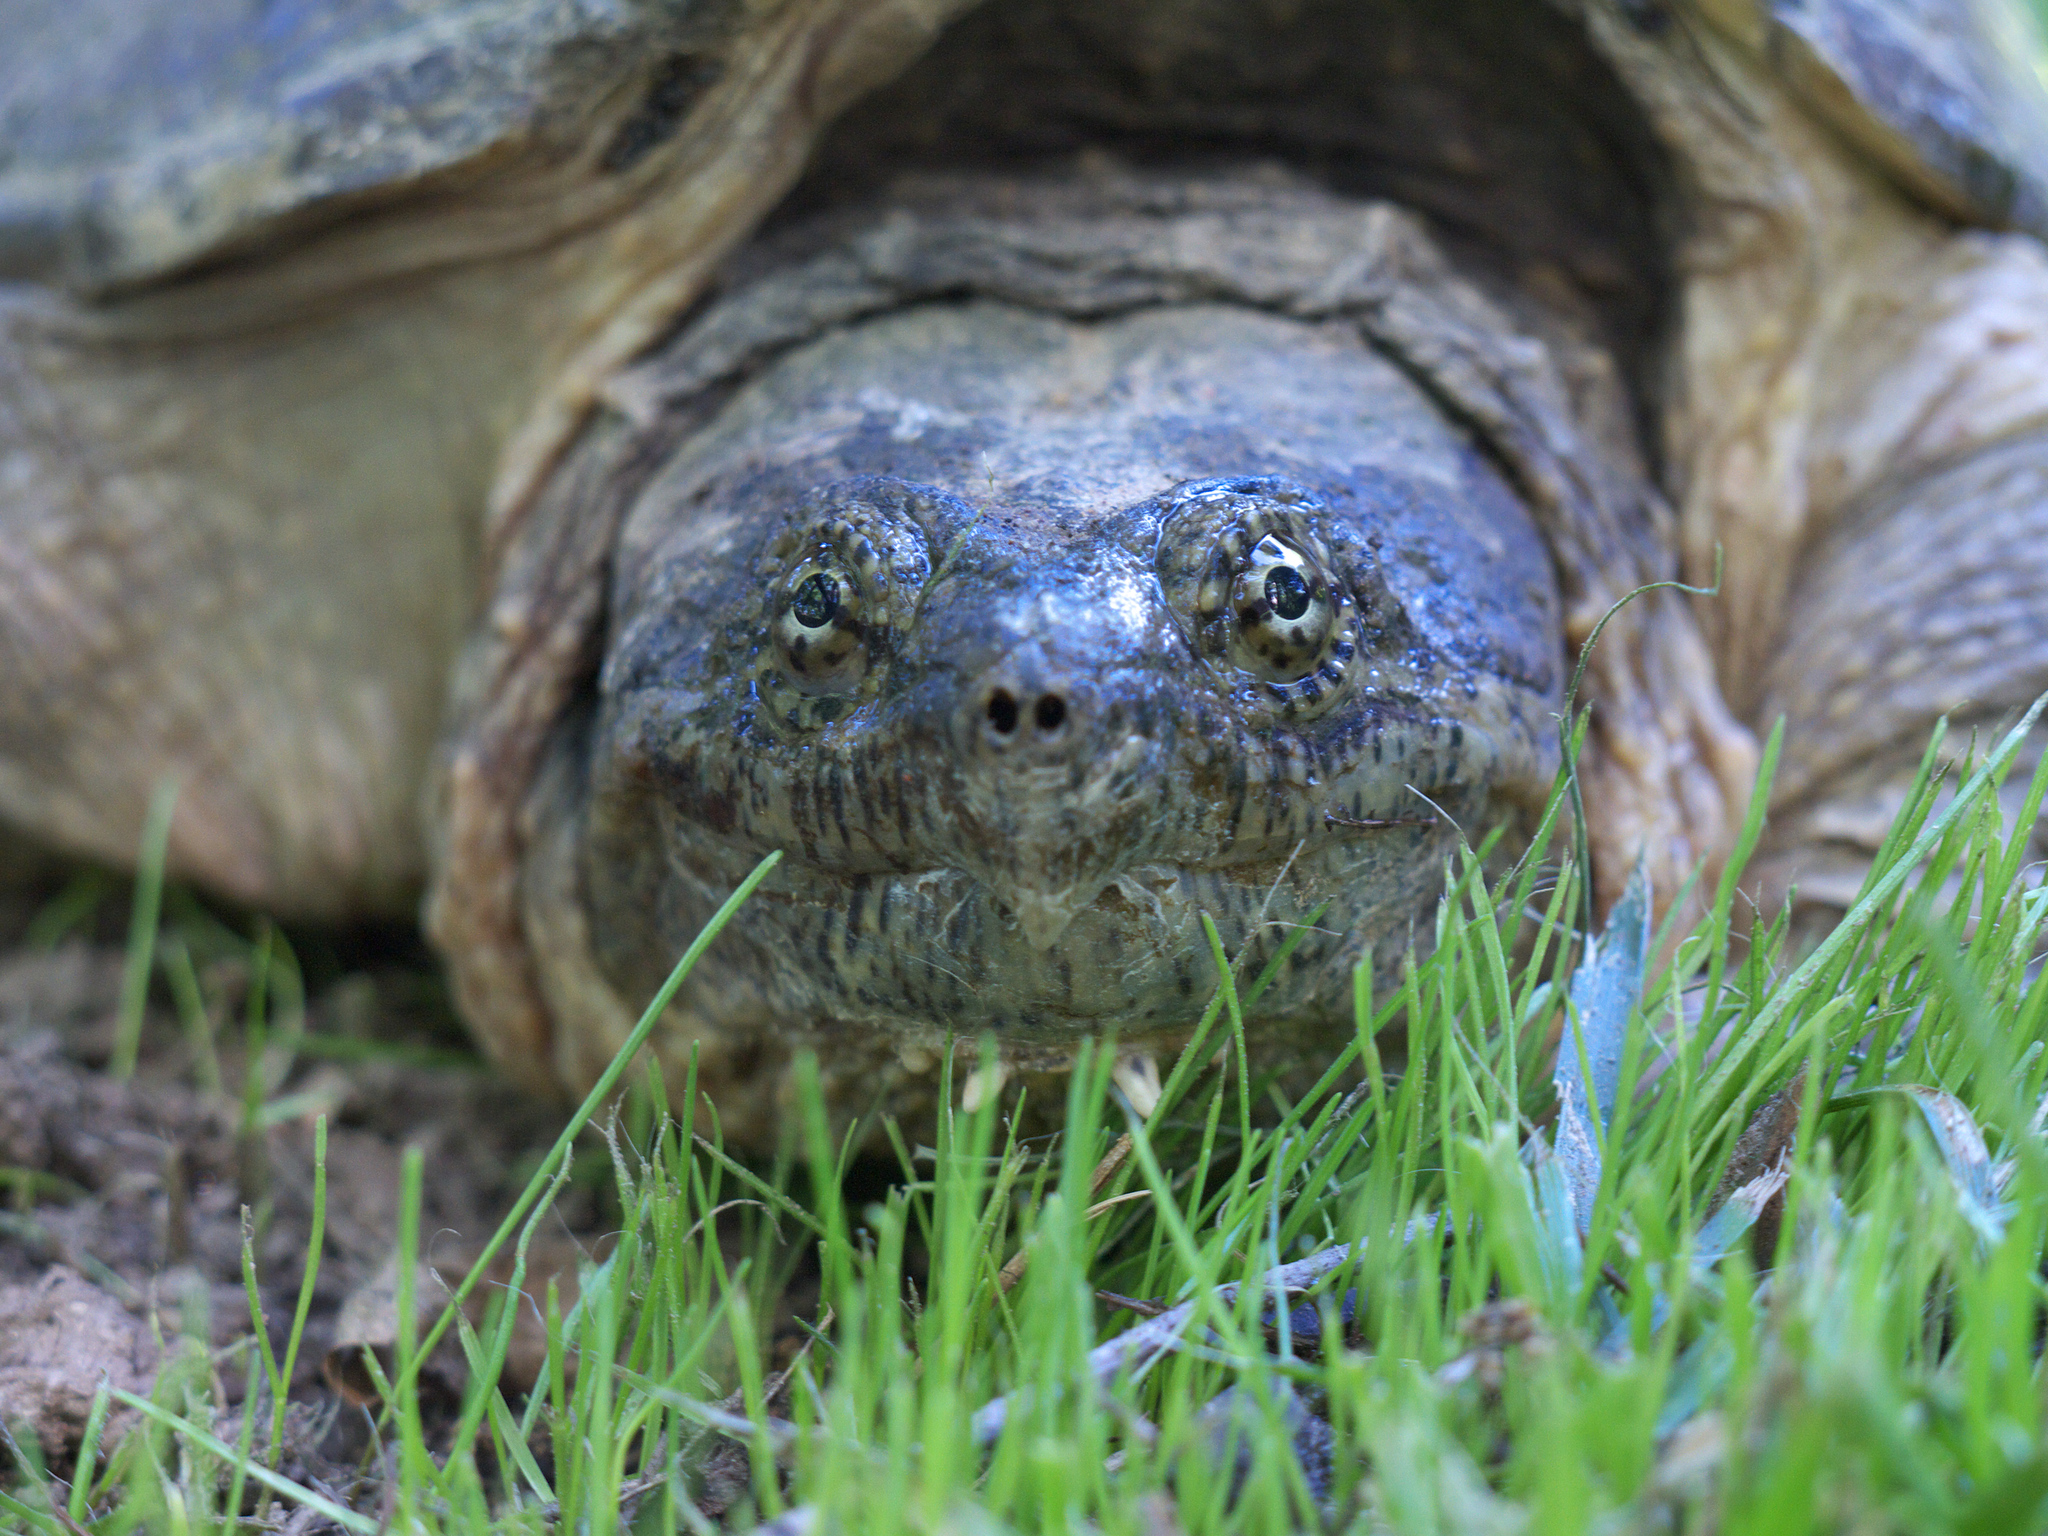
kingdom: Animalia
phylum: Chordata
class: Testudines
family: Chelydridae
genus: Chelydra
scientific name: Chelydra serpentina
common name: Common snapping turtle
